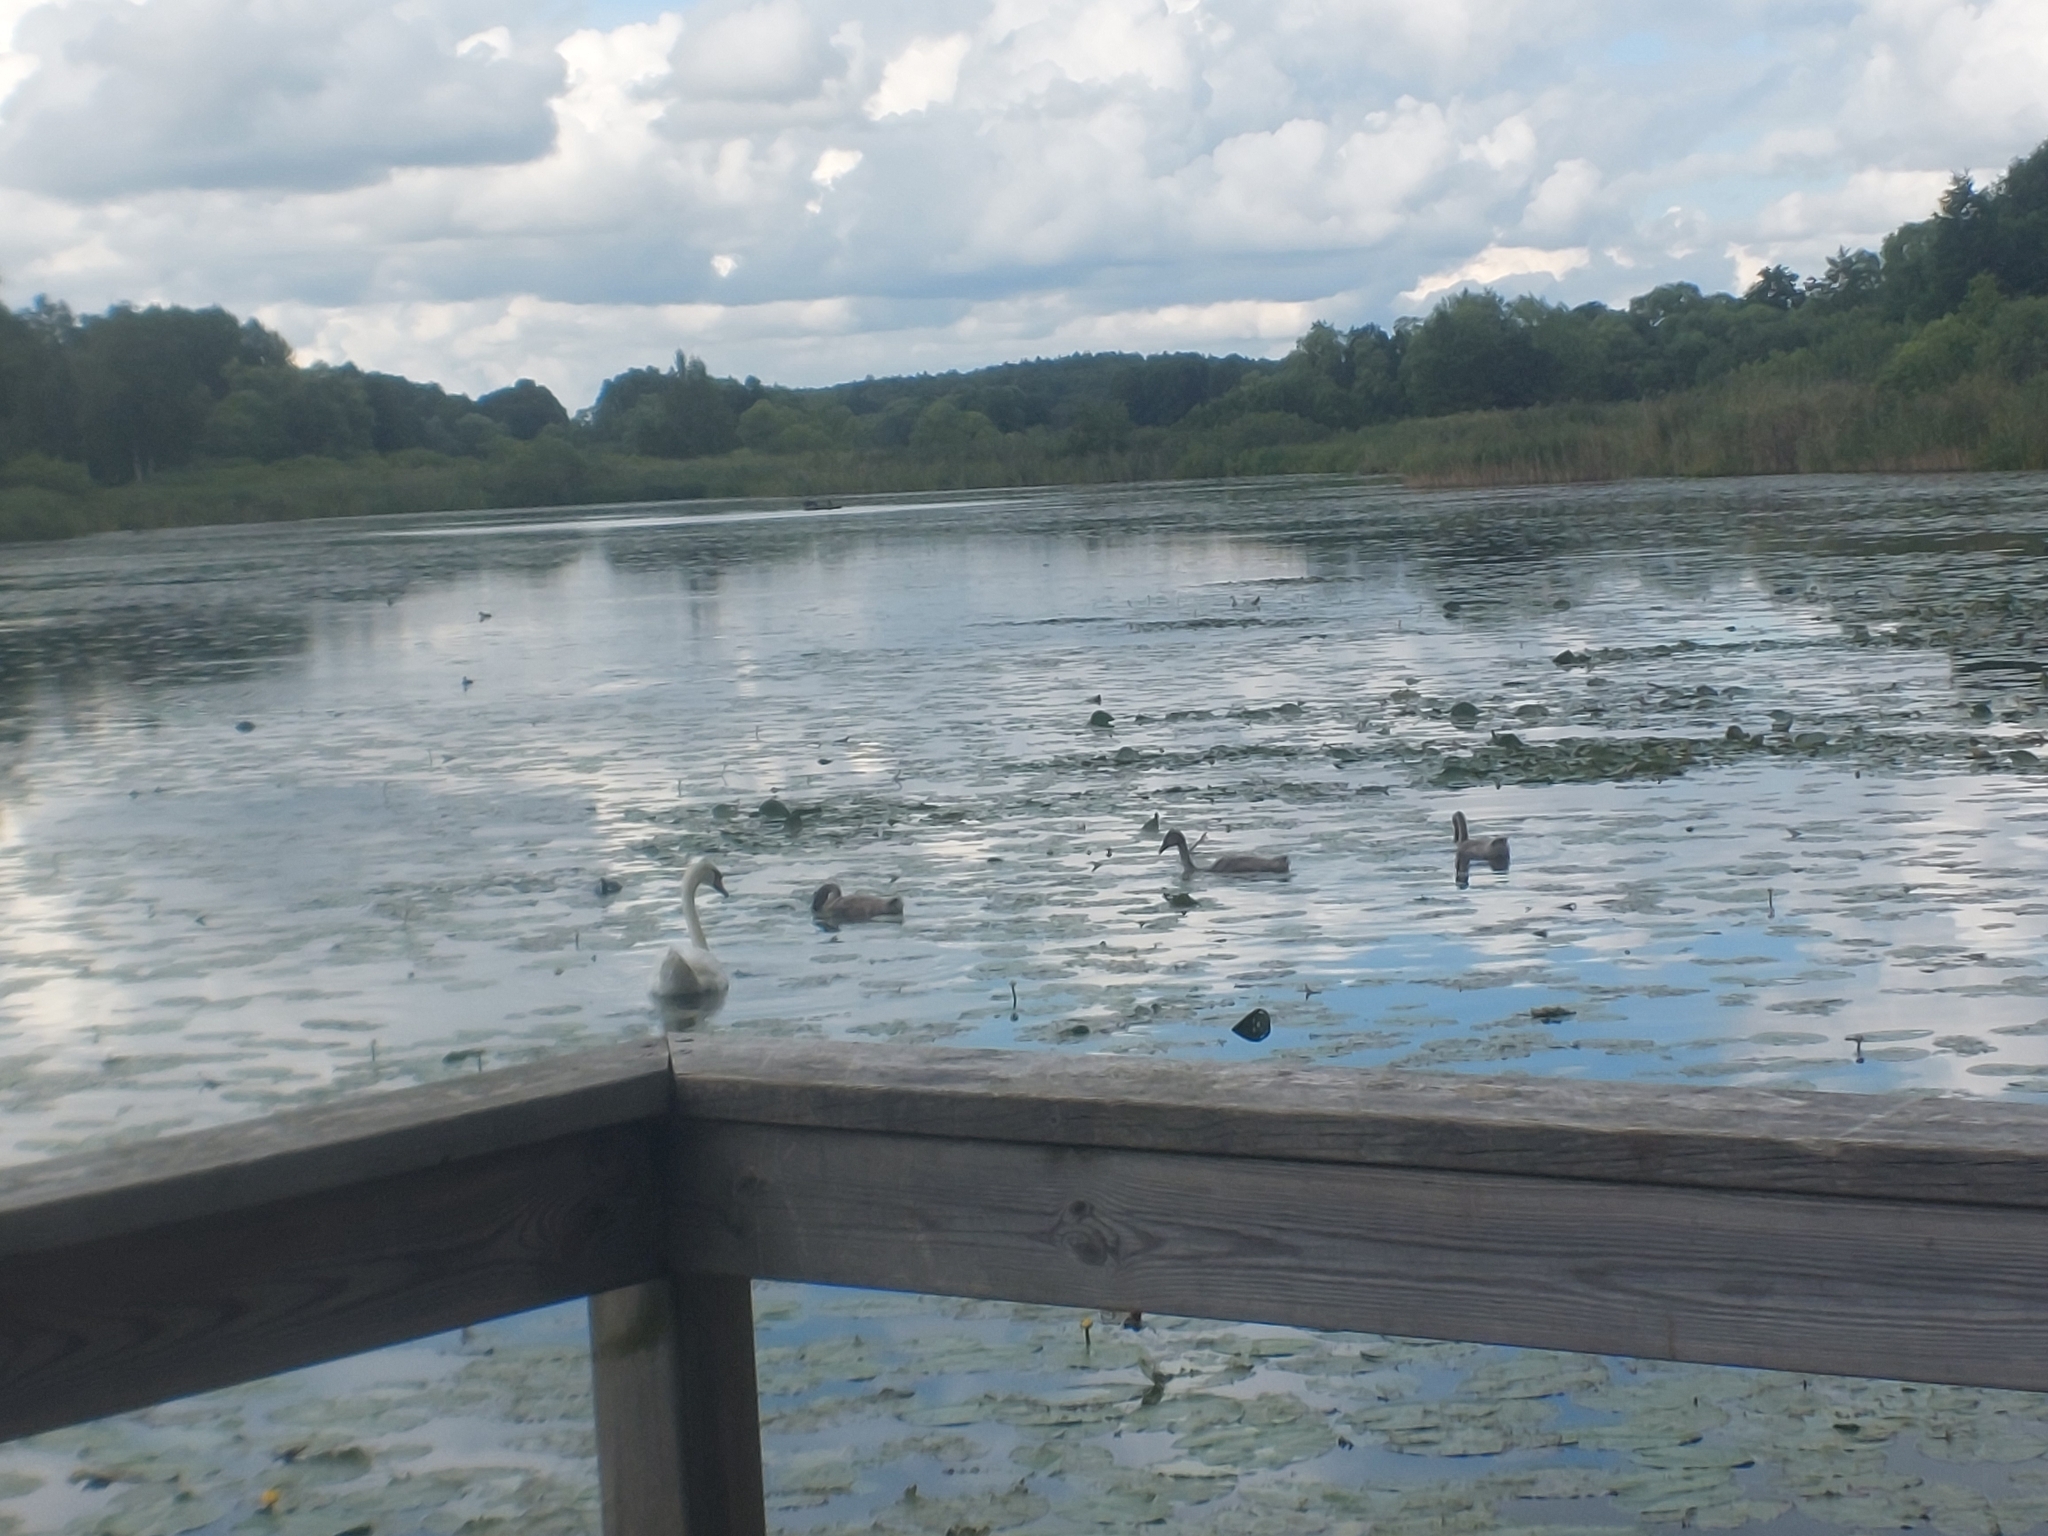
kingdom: Animalia
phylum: Chordata
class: Aves
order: Anseriformes
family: Anatidae
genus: Cygnus
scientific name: Cygnus olor
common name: Mute swan
